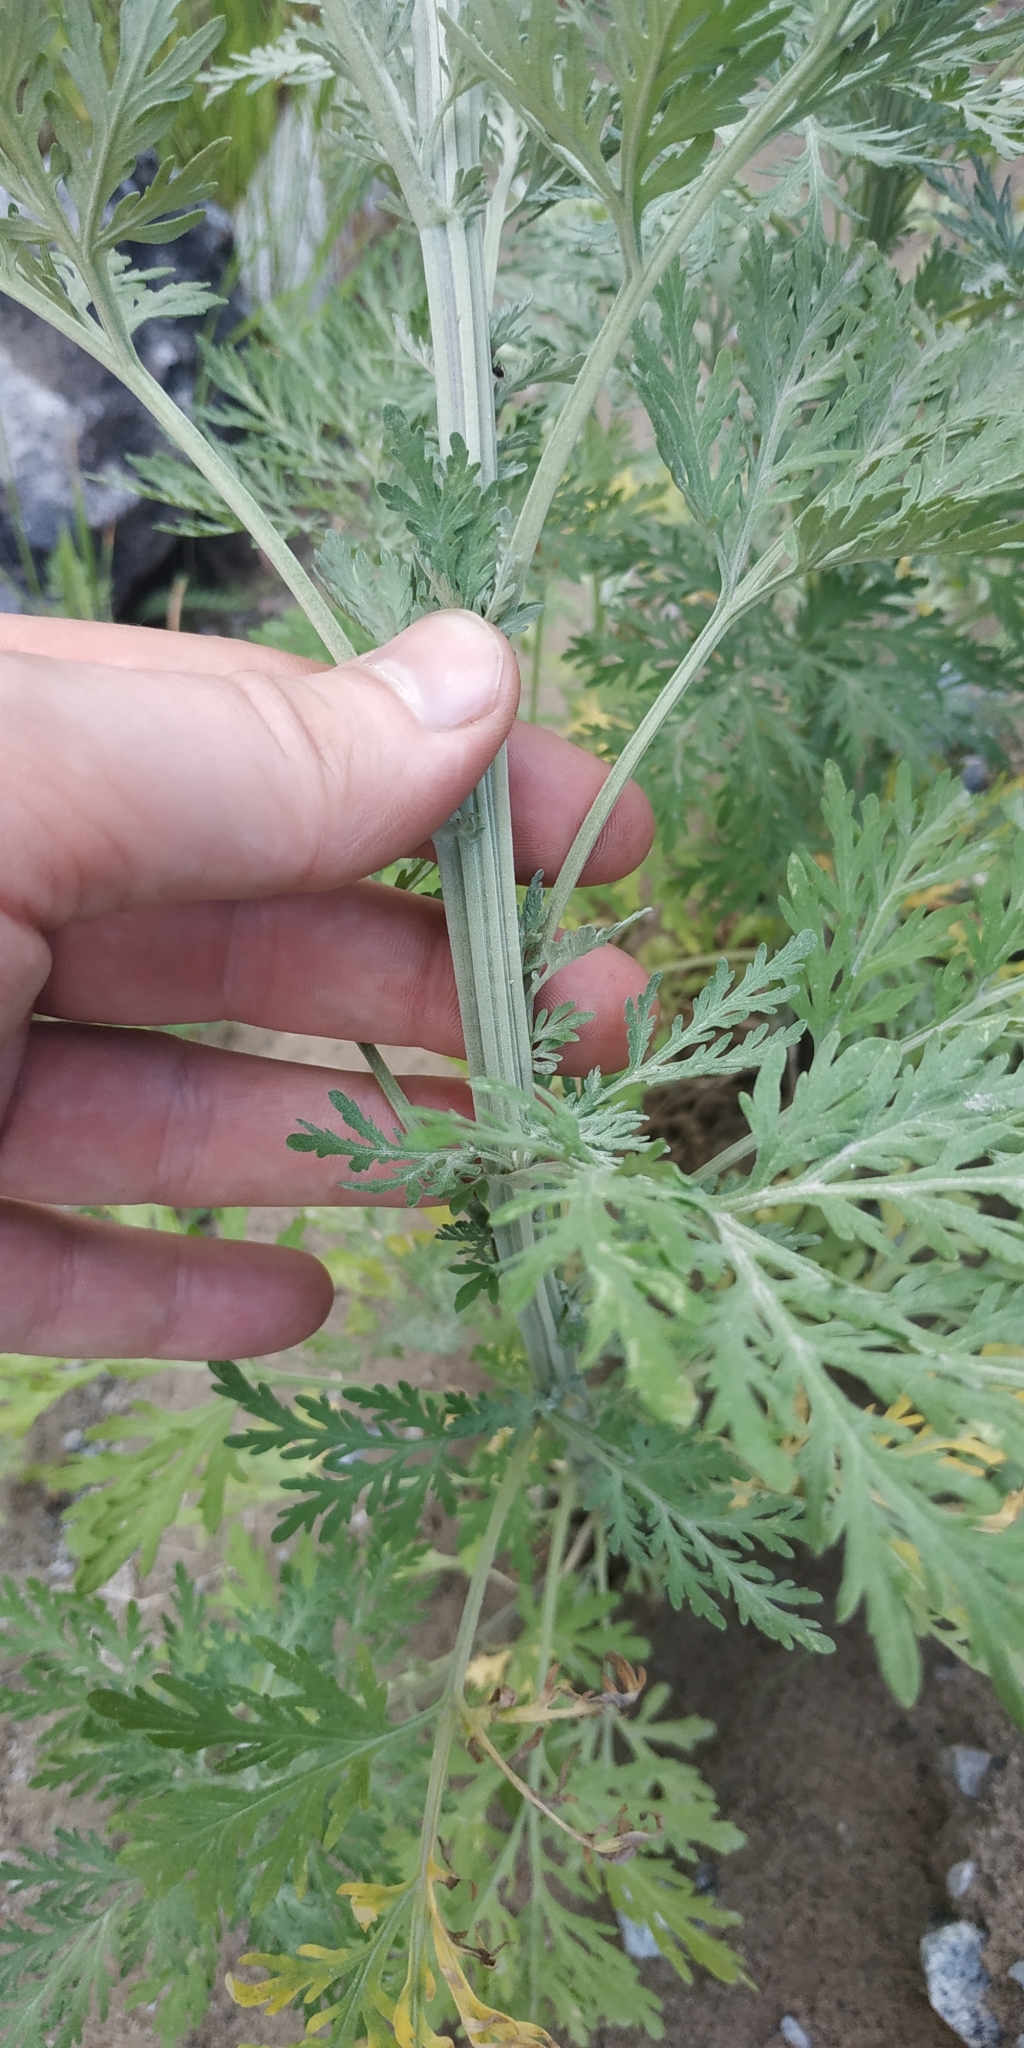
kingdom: Plantae
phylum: Tracheophyta
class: Magnoliopsida
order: Asterales
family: Asteraceae
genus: Artemisia
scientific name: Artemisia sieversiana
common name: Sieversian wormwood
